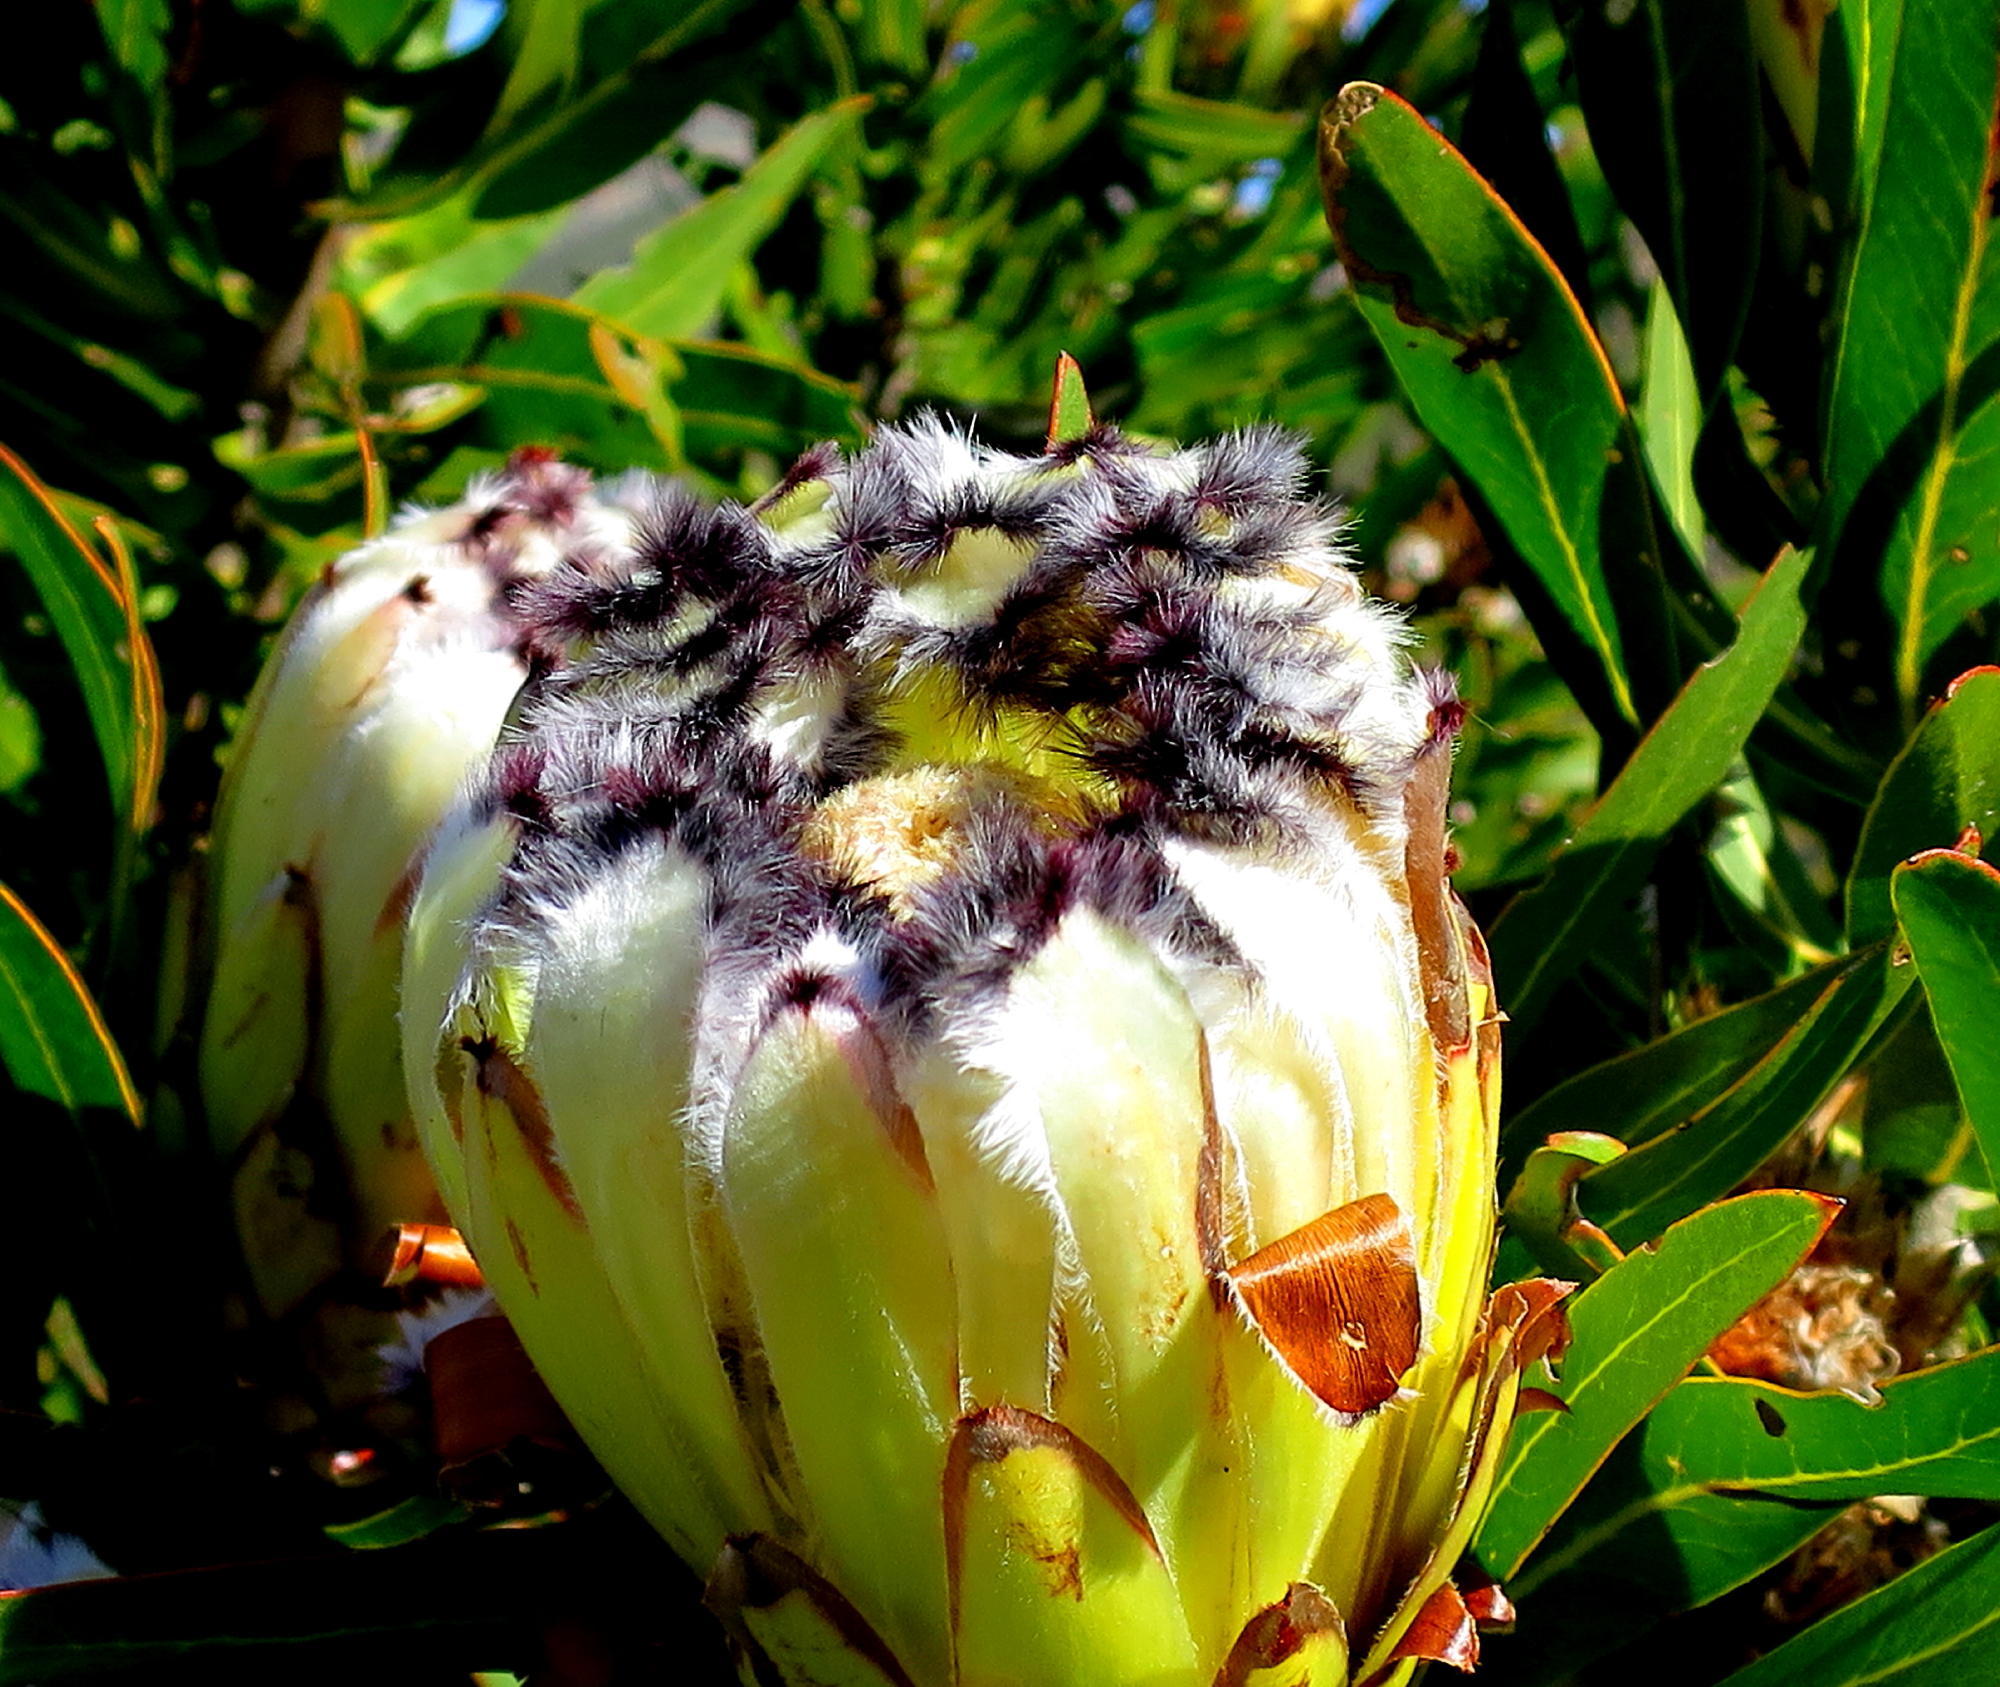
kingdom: Plantae
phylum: Tracheophyta
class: Magnoliopsida
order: Proteales
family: Proteaceae
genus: Protea
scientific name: Protea neriifolia
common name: Blue sugarbush
